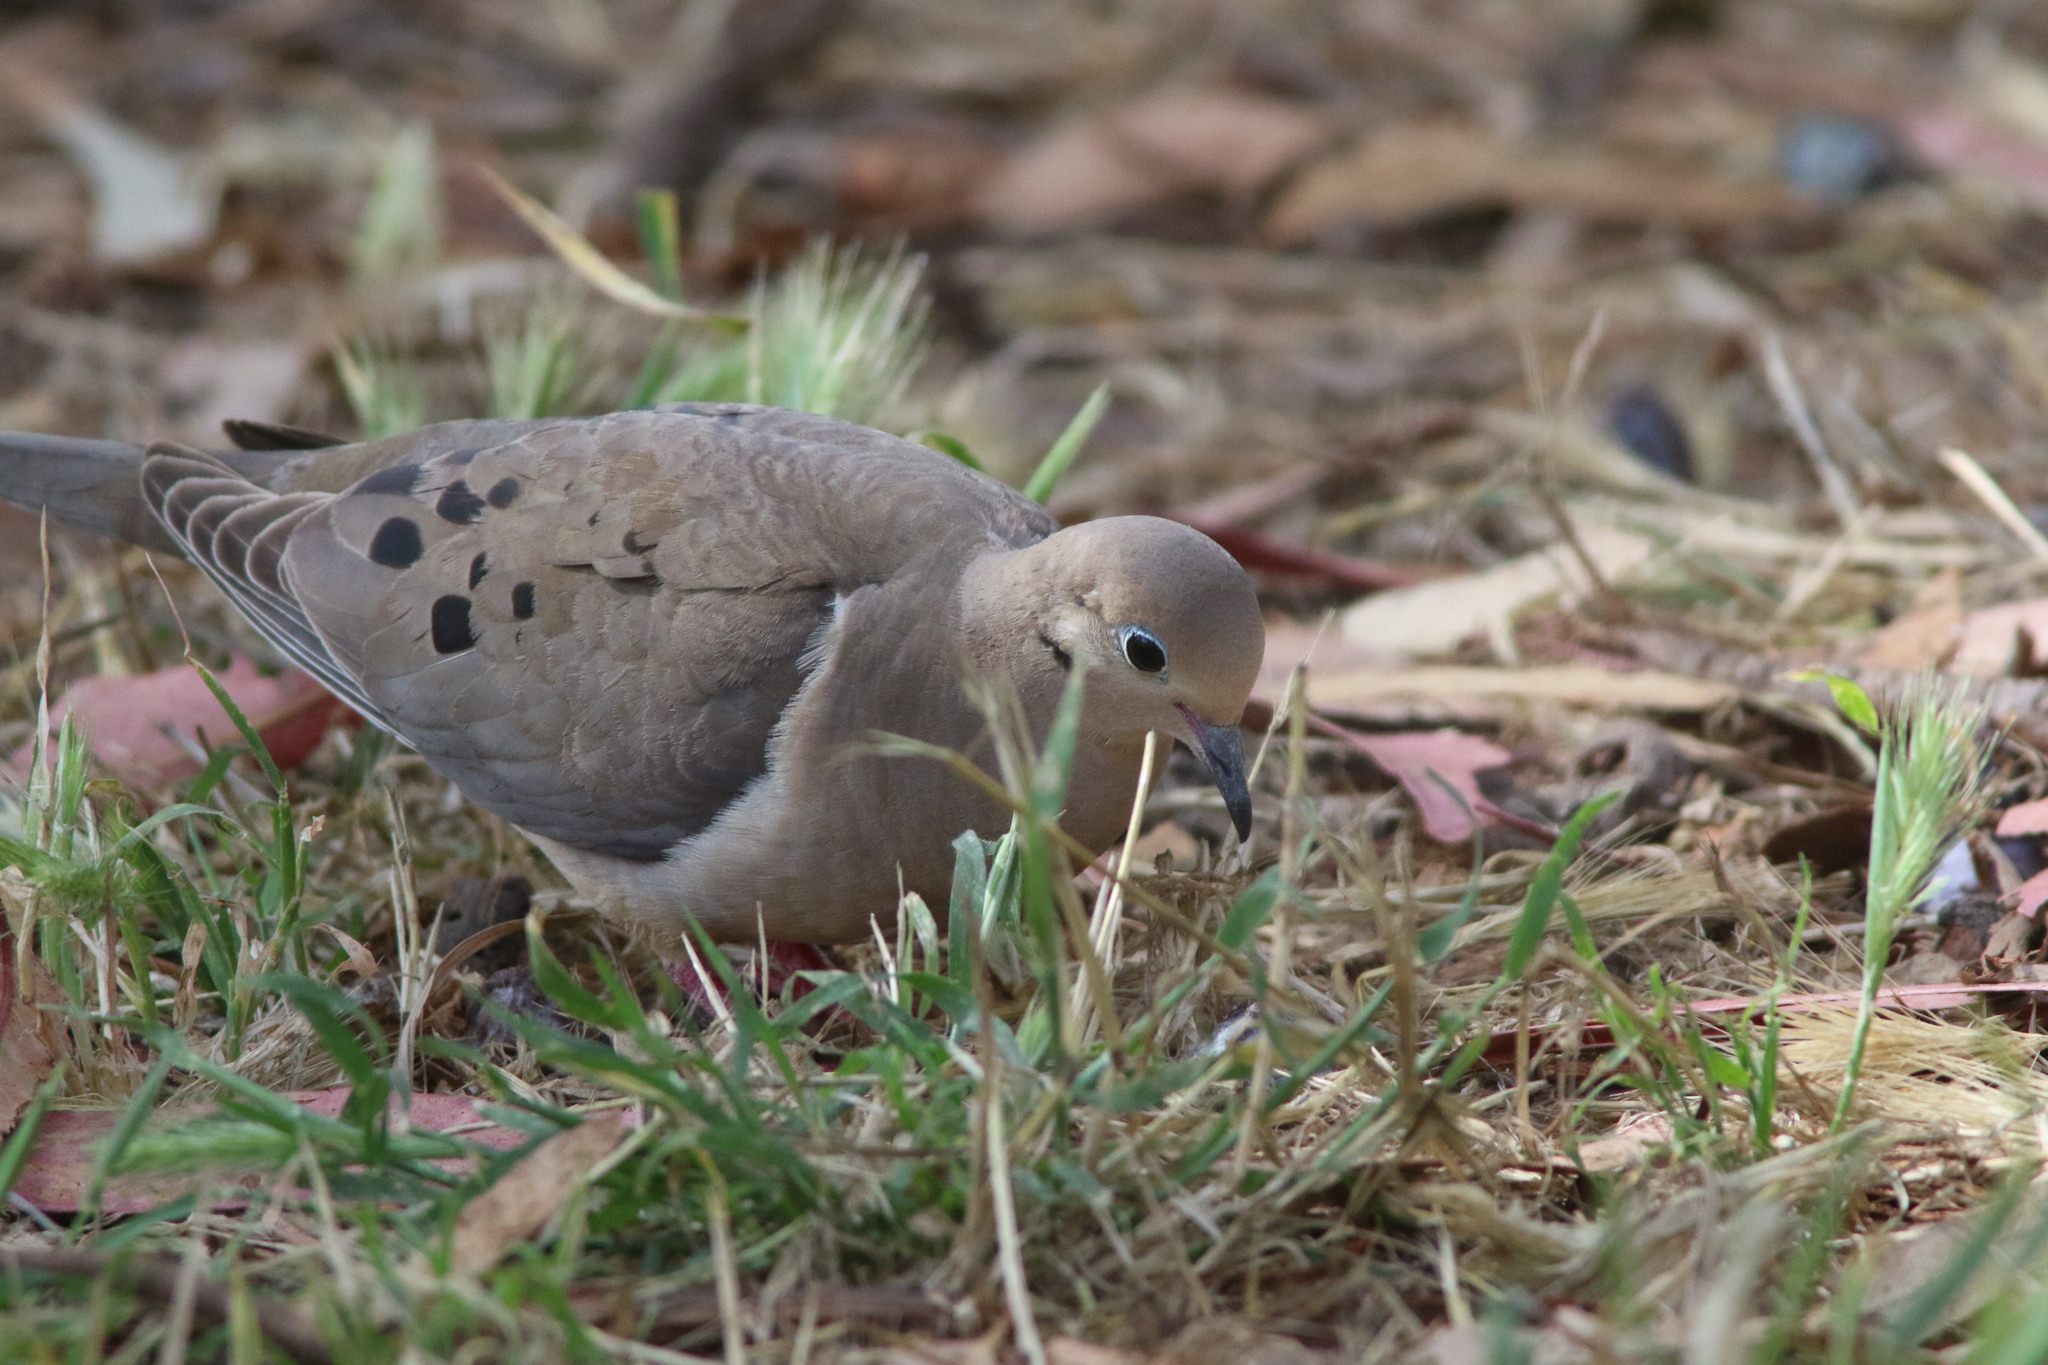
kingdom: Animalia
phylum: Chordata
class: Aves
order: Columbiformes
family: Columbidae
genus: Zenaida
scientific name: Zenaida macroura
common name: Mourning dove
